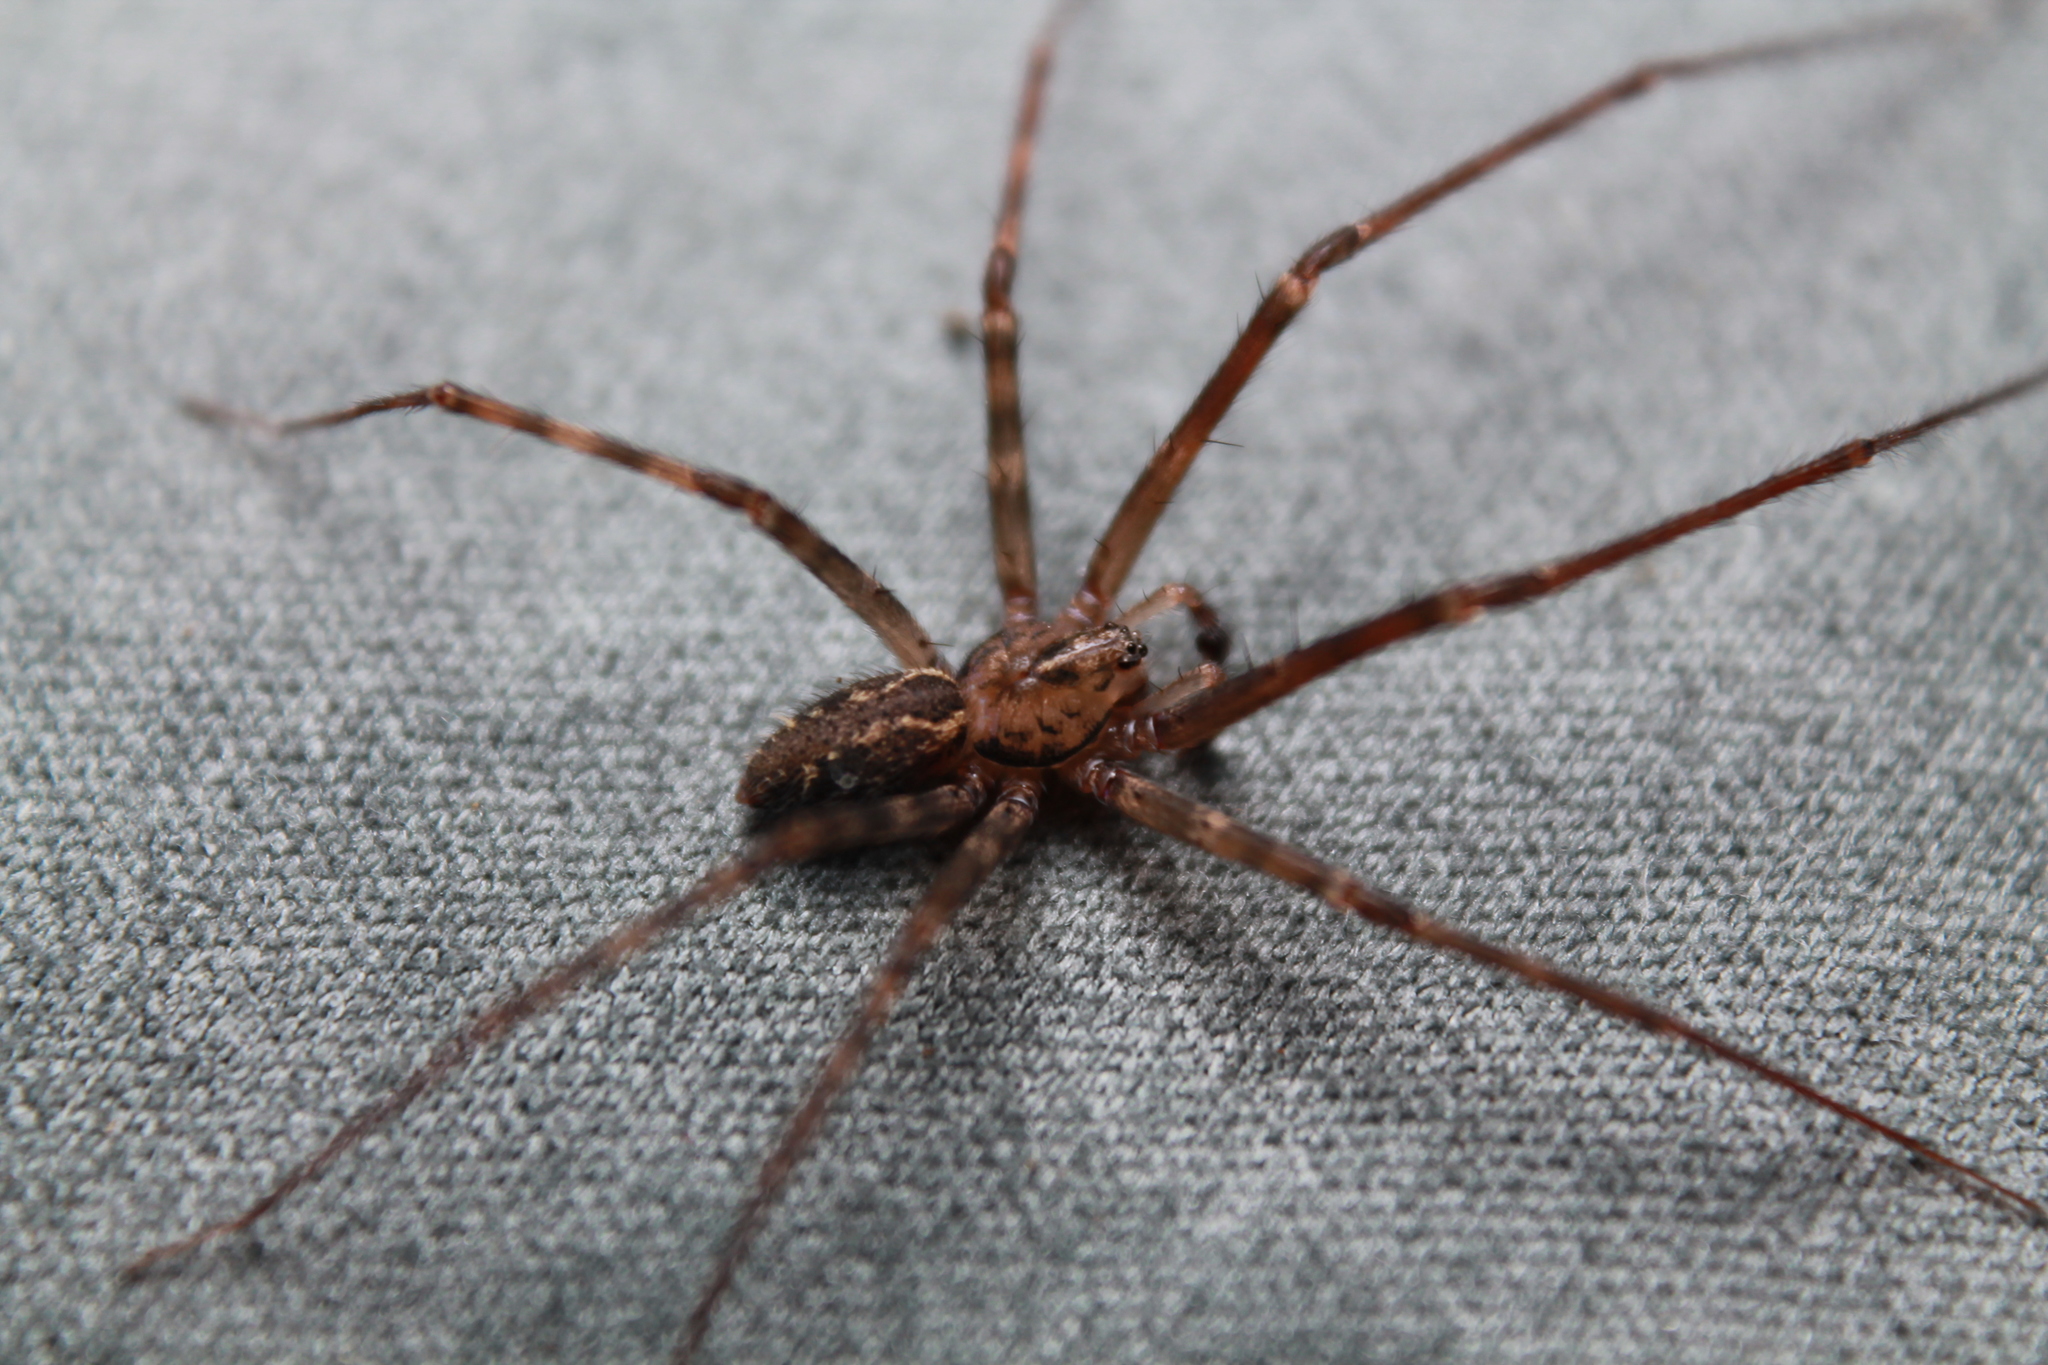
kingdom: Animalia
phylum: Arthropoda
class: Arachnida
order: Araneae
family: Stiphidiidae
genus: Stiphidion
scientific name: Stiphidion facetum
